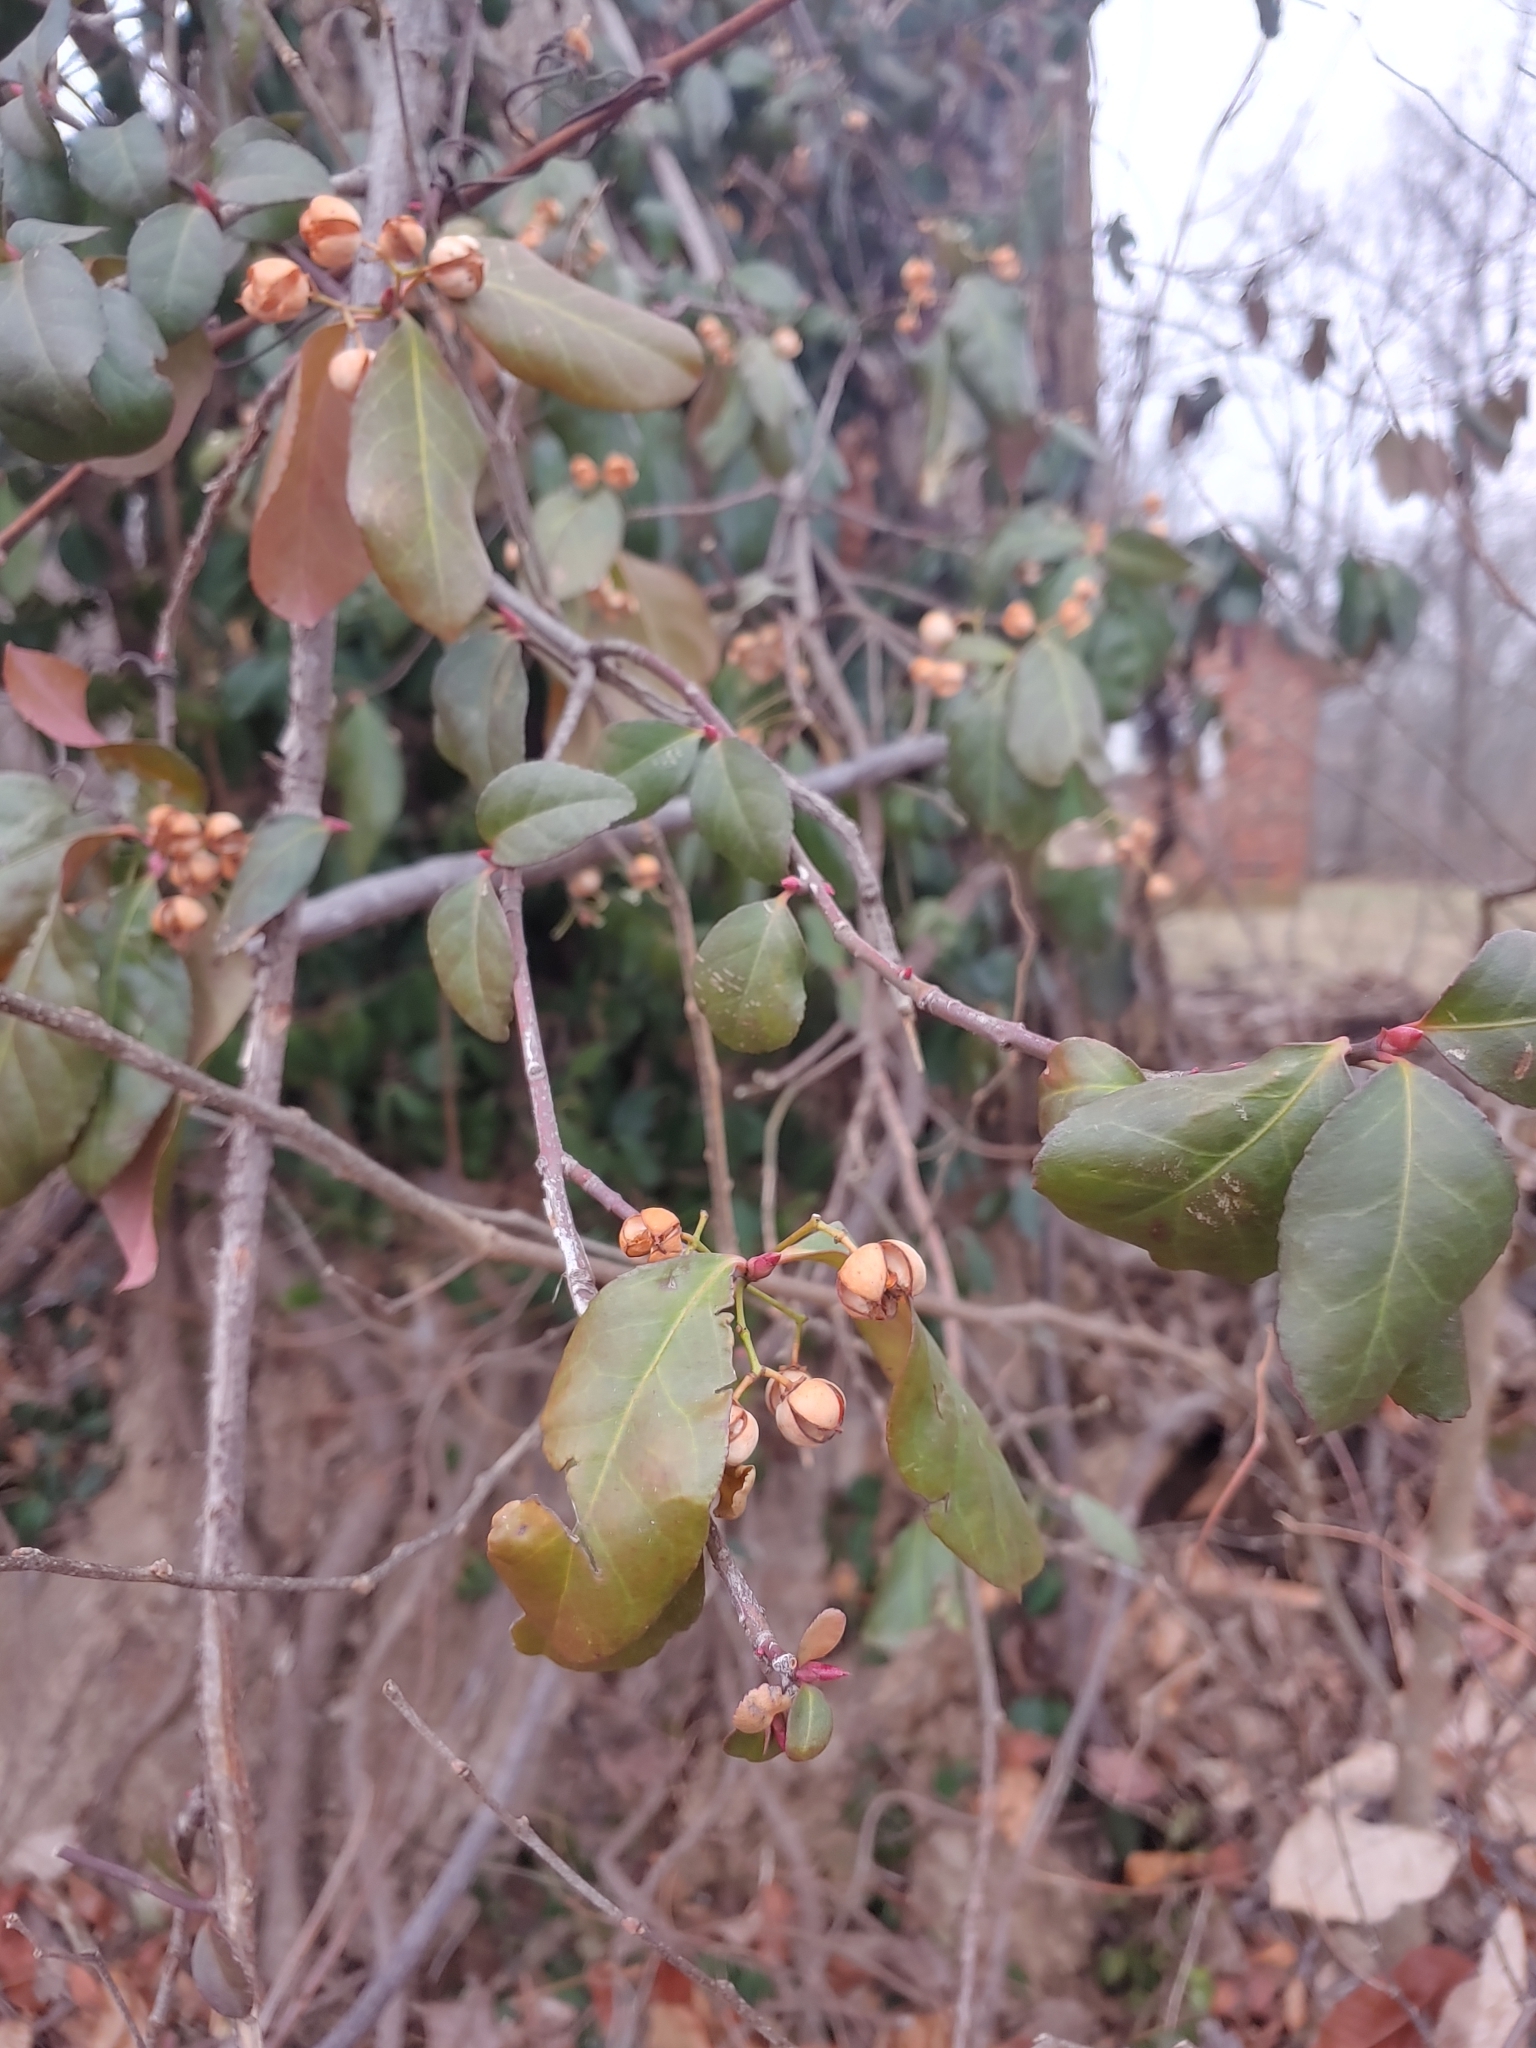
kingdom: Plantae
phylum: Tracheophyta
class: Magnoliopsida
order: Celastrales
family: Celastraceae
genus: Euonymus
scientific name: Euonymus fortunei
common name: Climbing euonymus
